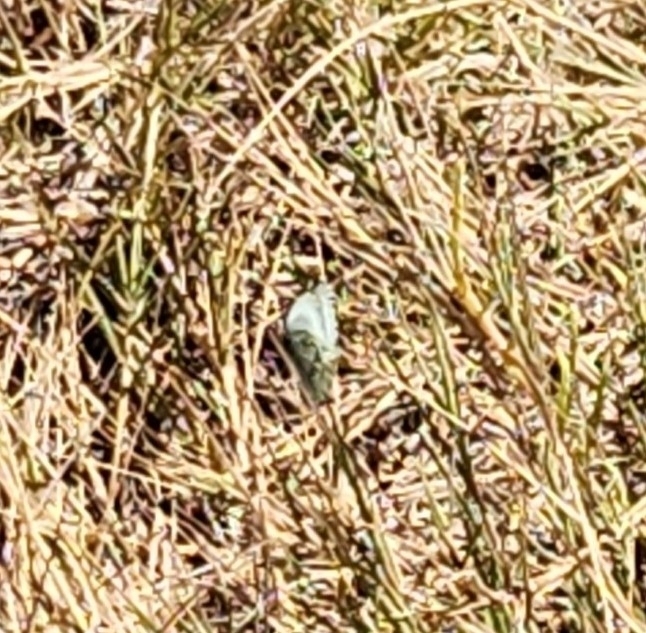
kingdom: Animalia
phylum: Arthropoda
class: Insecta
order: Lepidoptera
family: Pieridae
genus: Ascia
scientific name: Ascia monuste
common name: Great southern white
